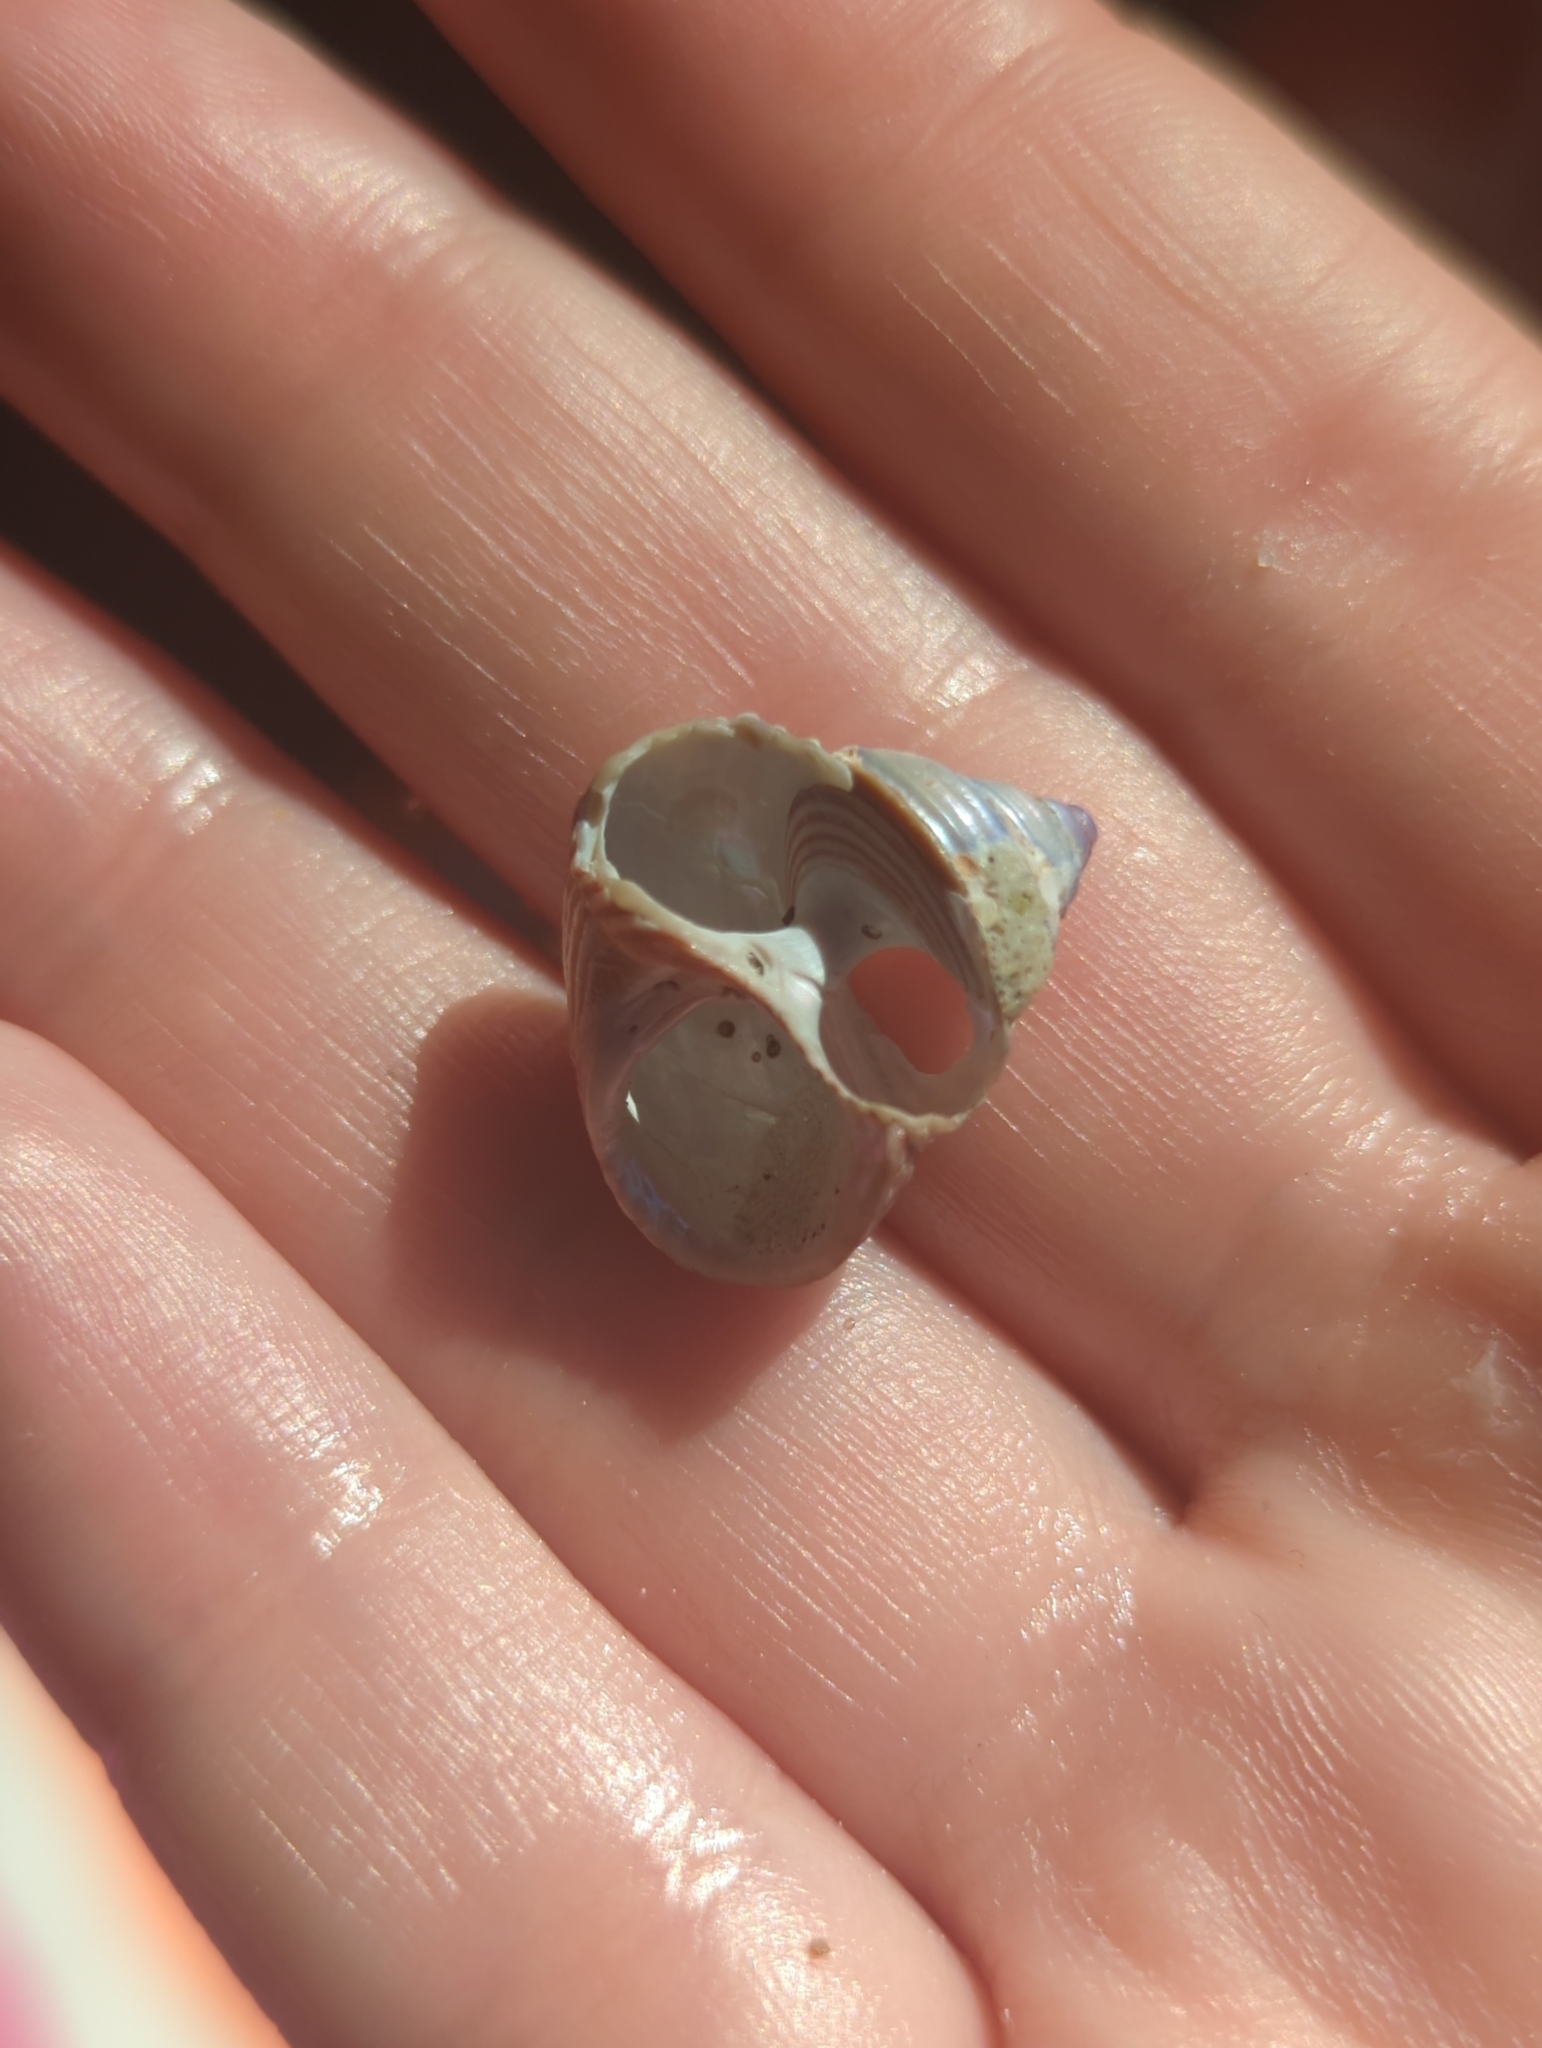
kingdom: Animalia
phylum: Mollusca
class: Gastropoda
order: Trochida
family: Calliostomatidae
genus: Calliostoma
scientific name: Calliostoma ligatum
